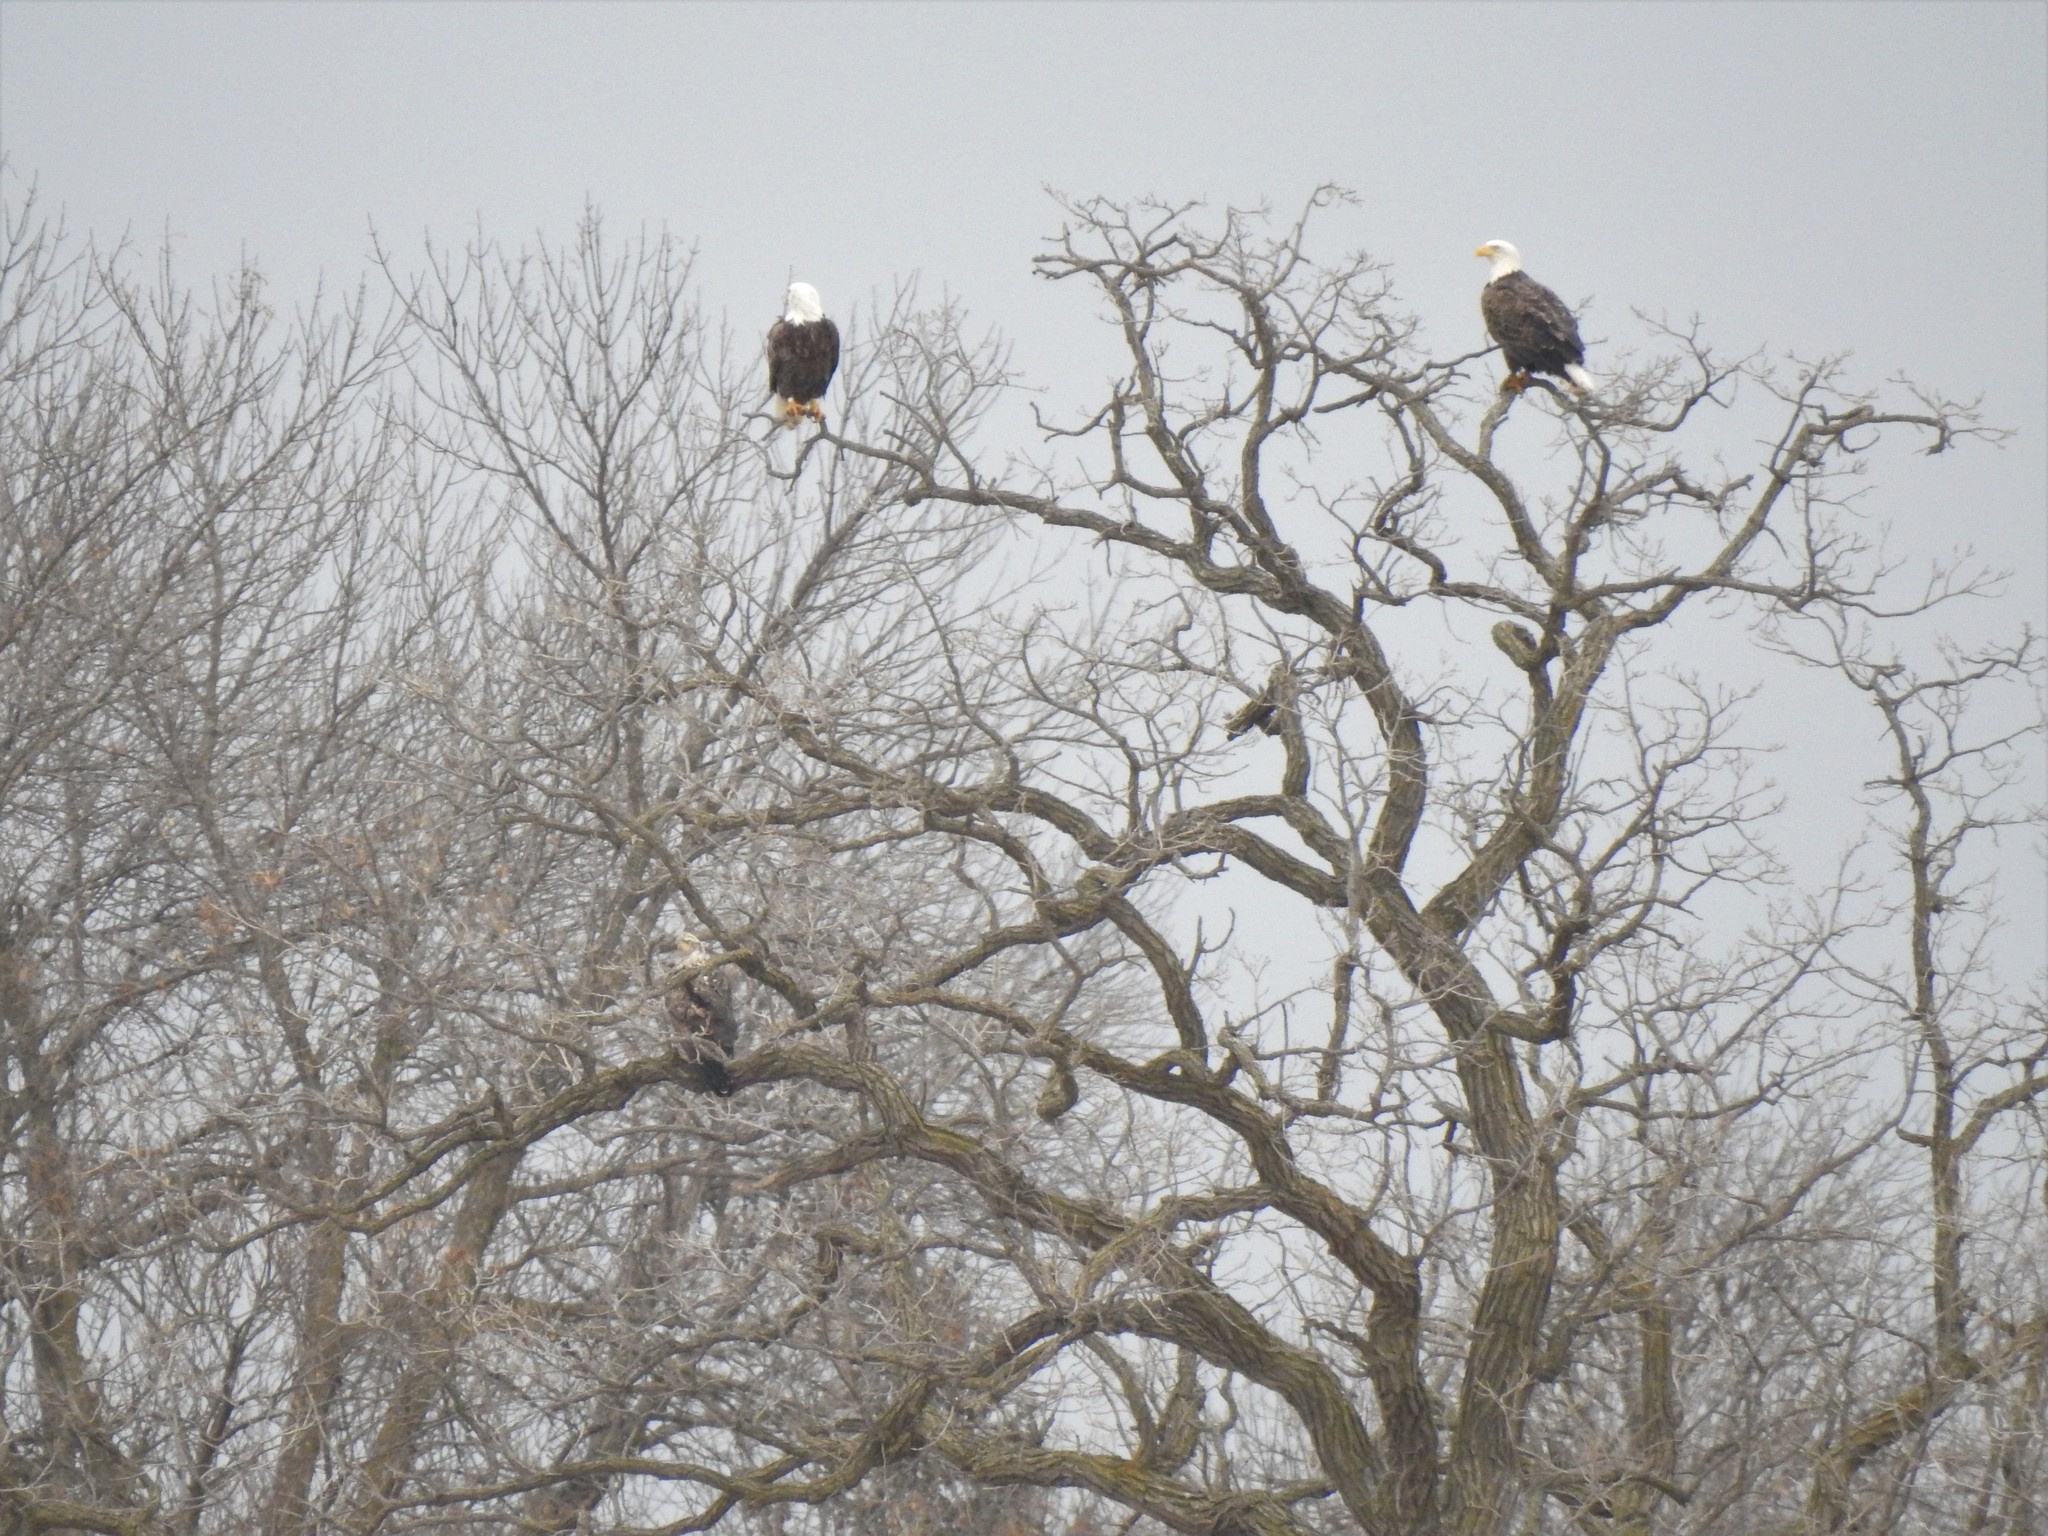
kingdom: Animalia
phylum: Chordata
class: Aves
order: Accipitriformes
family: Accipitridae
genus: Haliaeetus
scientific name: Haliaeetus leucocephalus
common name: Bald eagle
